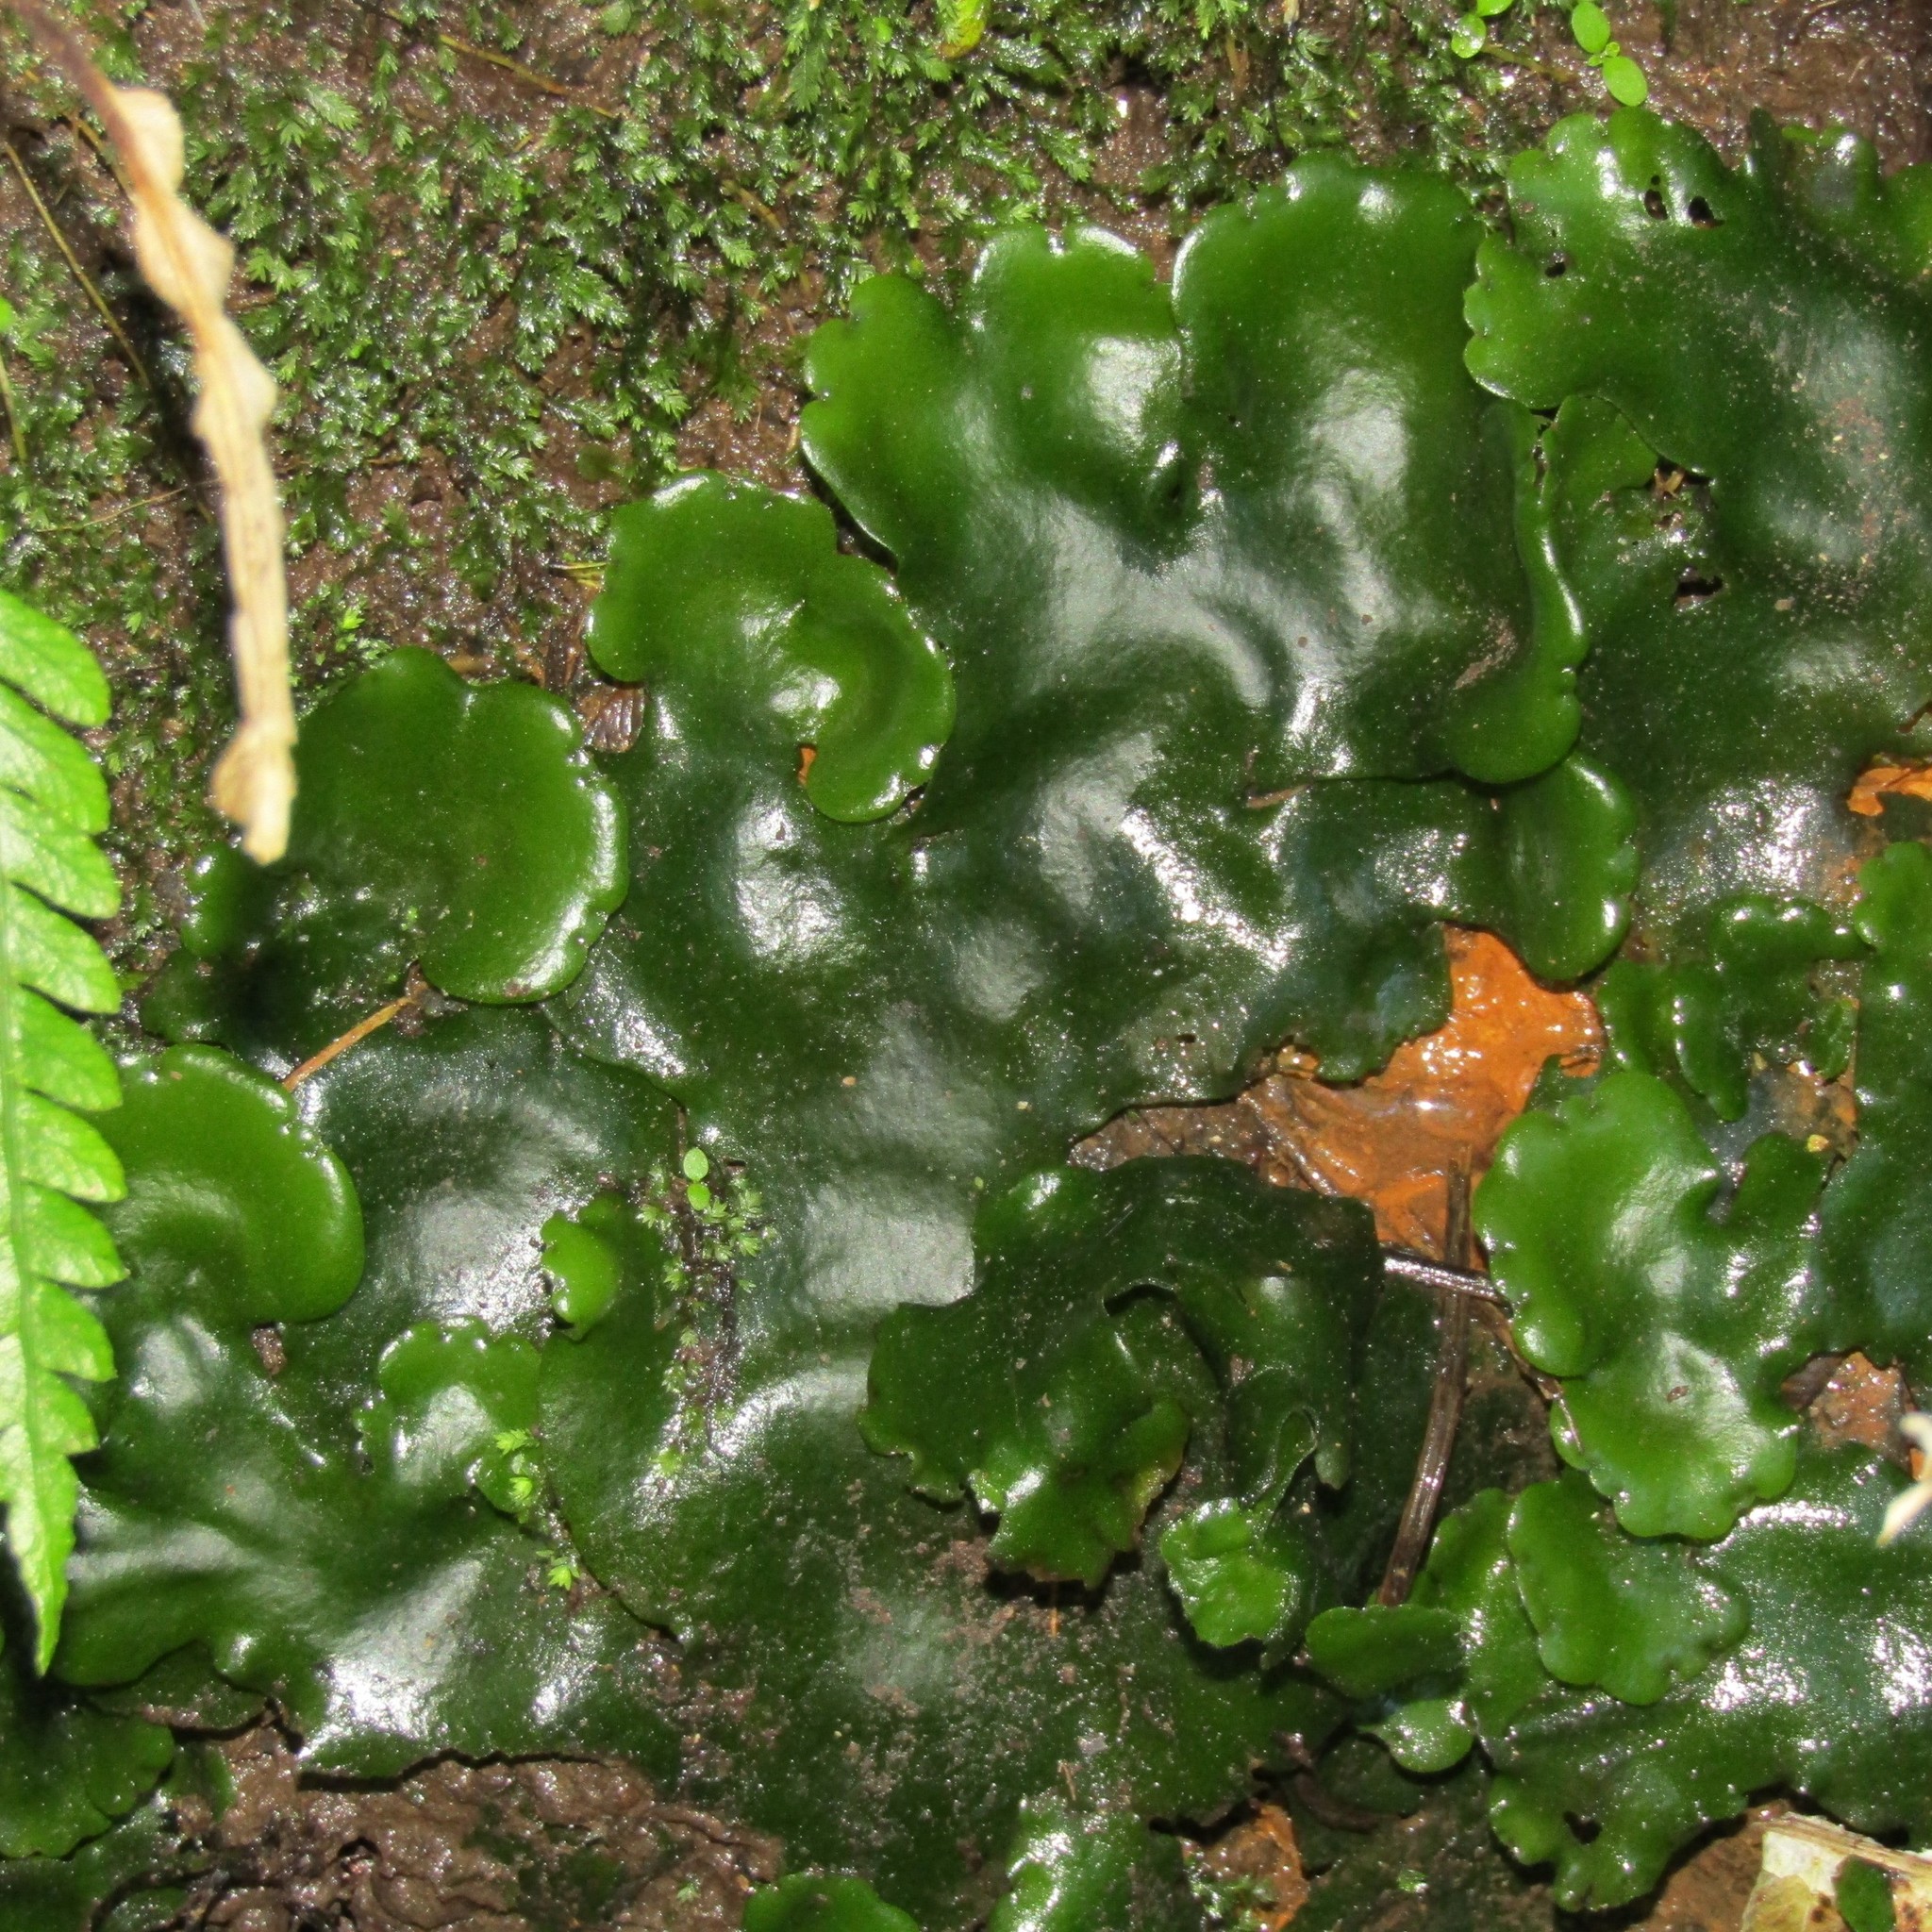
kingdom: Plantae
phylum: Marchantiophyta
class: Marchantiopsida
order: Marchantiales
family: Monocleaceae
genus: Monoclea
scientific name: Monoclea forsteri
